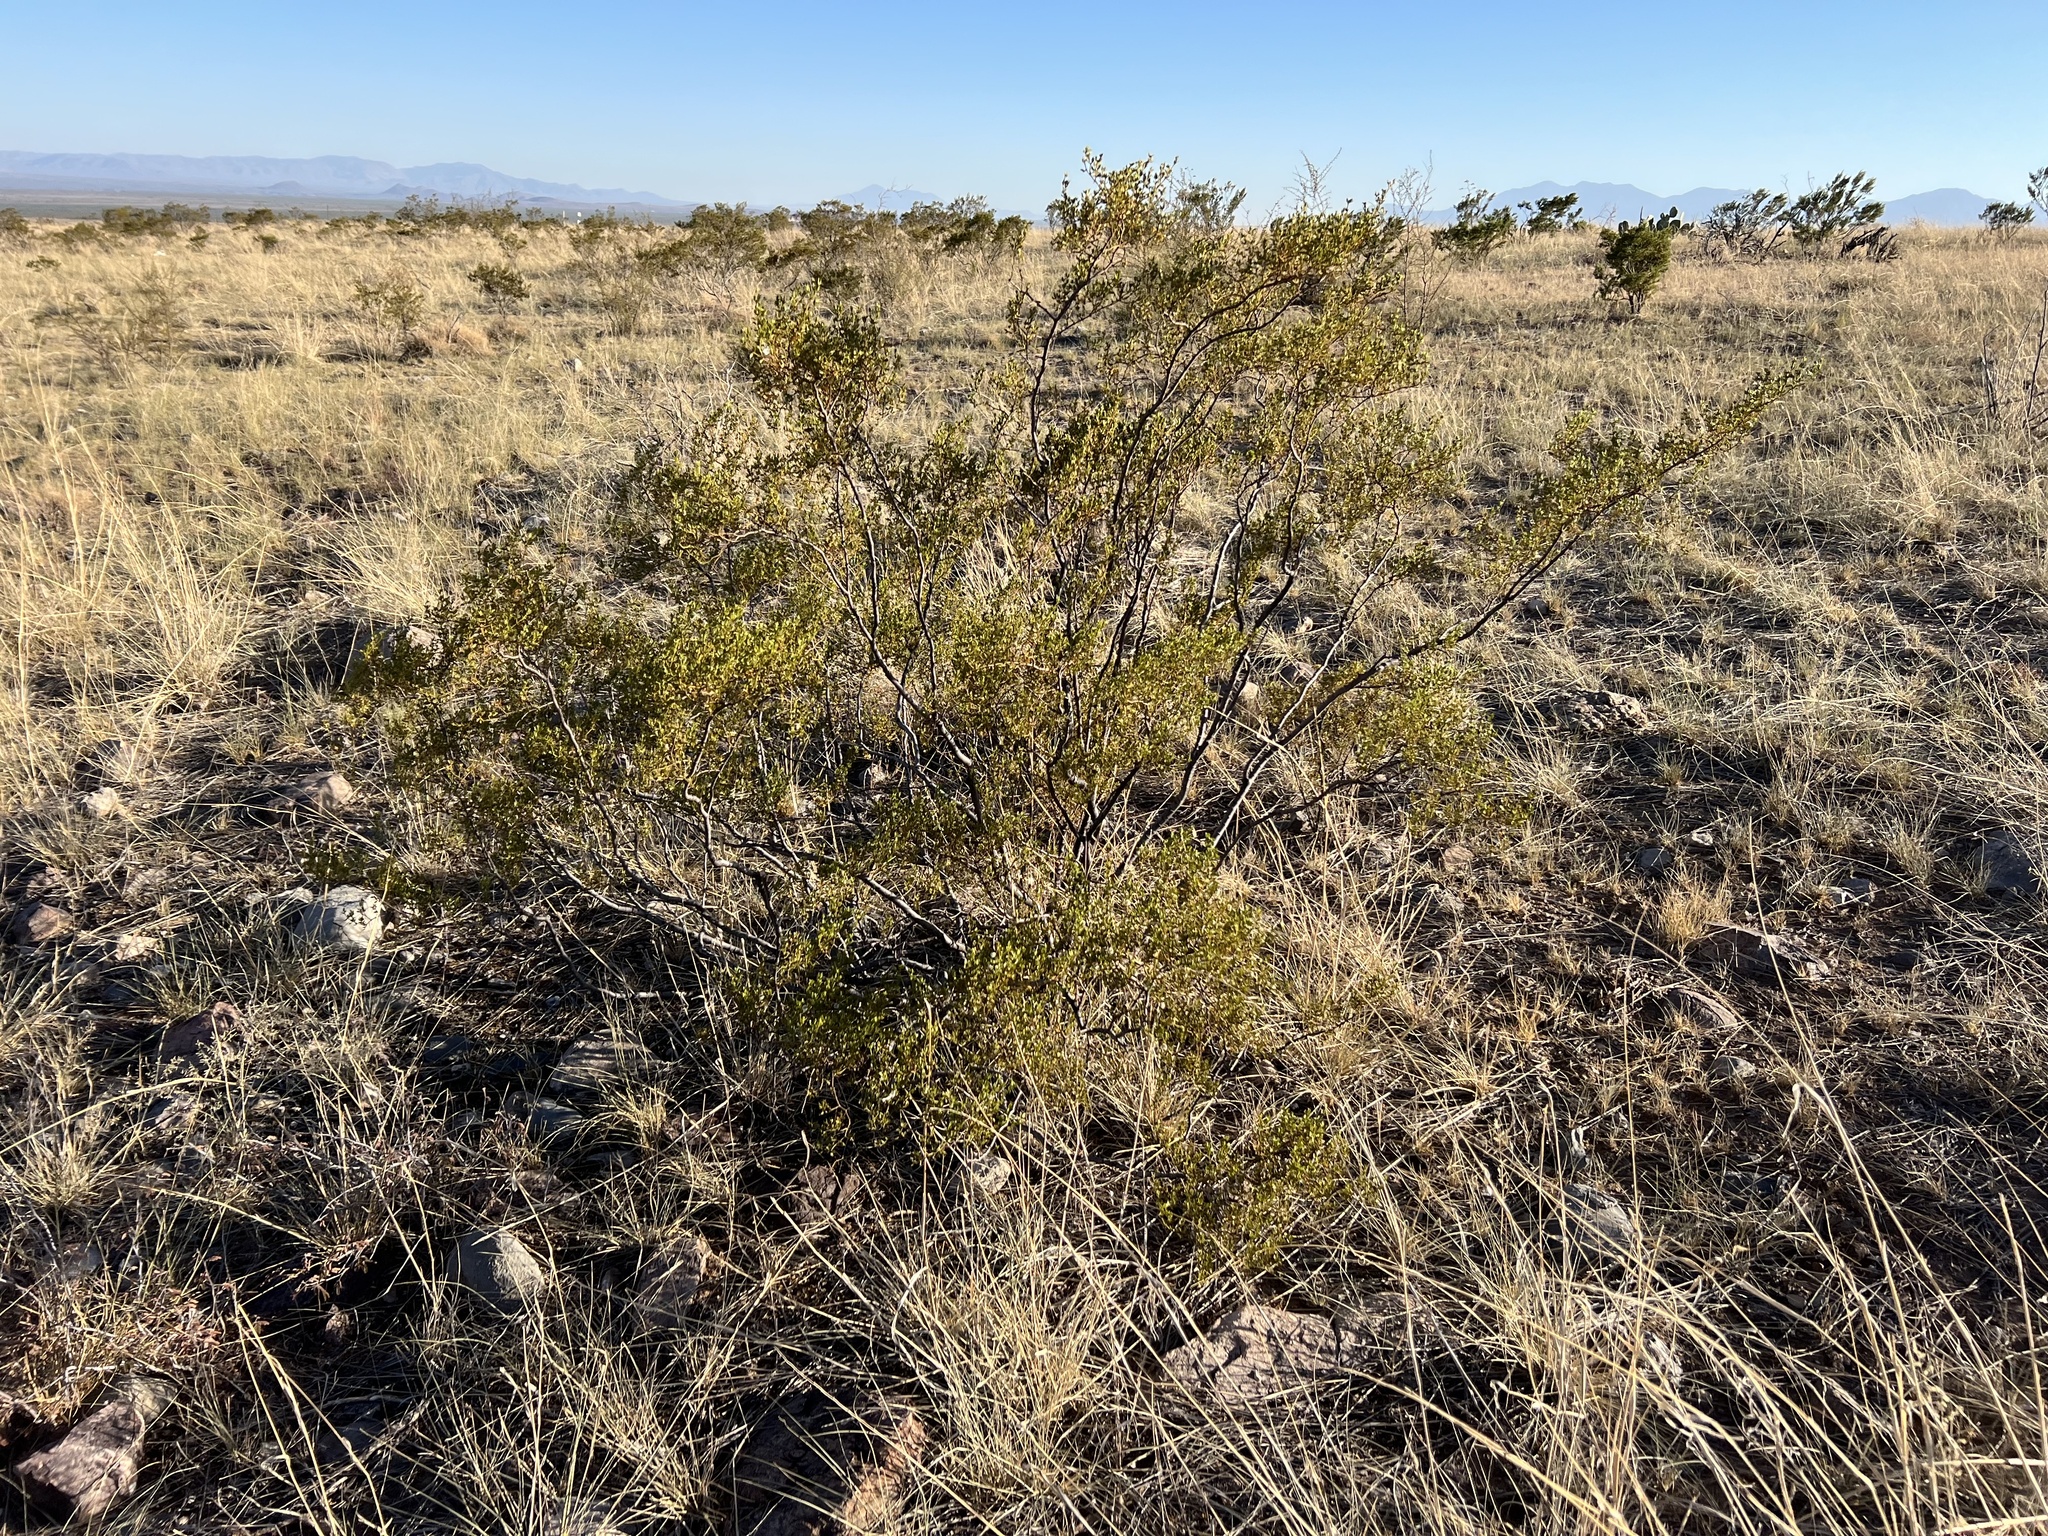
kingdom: Plantae
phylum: Tracheophyta
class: Magnoliopsida
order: Zygophyllales
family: Zygophyllaceae
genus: Larrea
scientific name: Larrea tridentata
